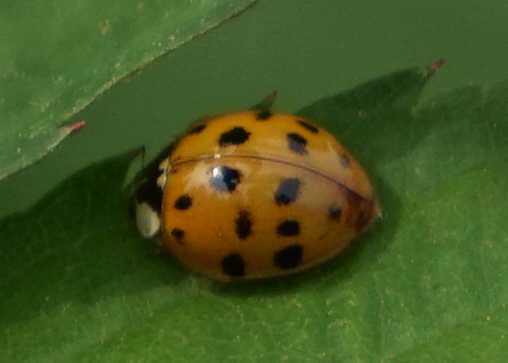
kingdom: Animalia
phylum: Arthropoda
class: Insecta
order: Coleoptera
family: Coccinellidae
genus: Harmonia
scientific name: Harmonia axyridis
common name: Harlequin ladybird
